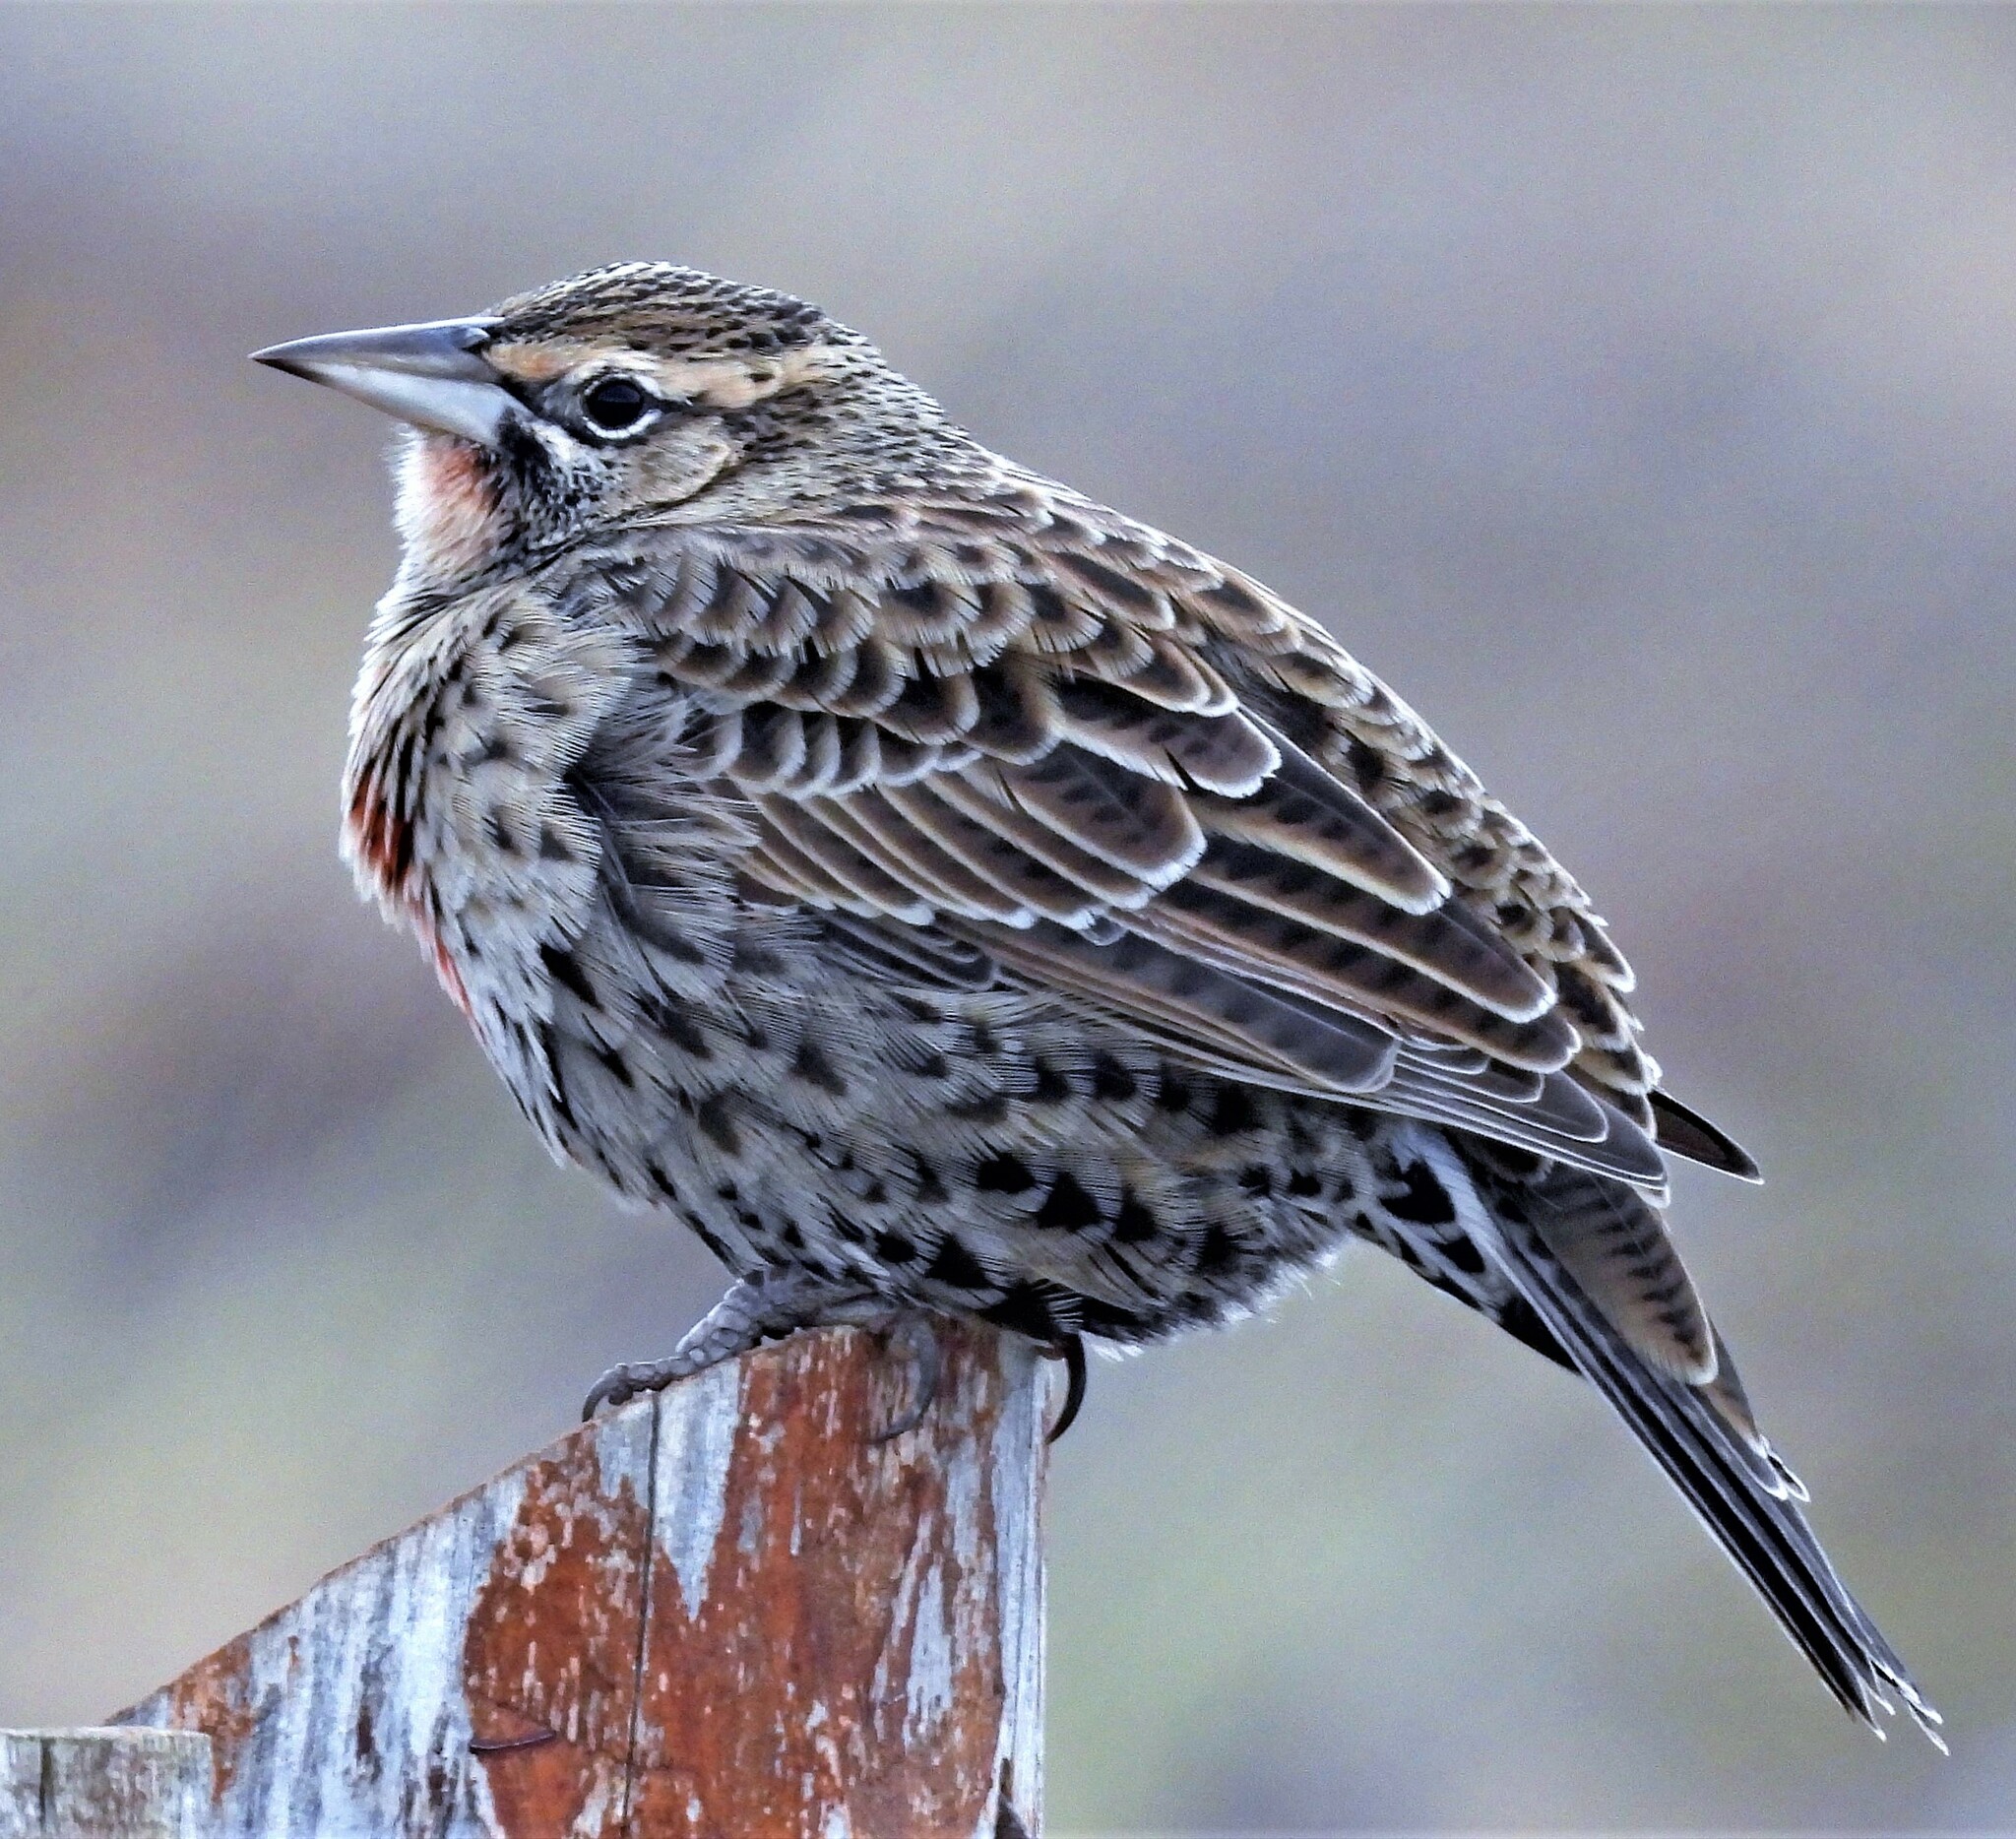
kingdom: Animalia
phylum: Chordata
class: Aves
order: Passeriformes
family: Icteridae
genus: Sturnella
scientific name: Sturnella loyca
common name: Long-tailed meadowlark
